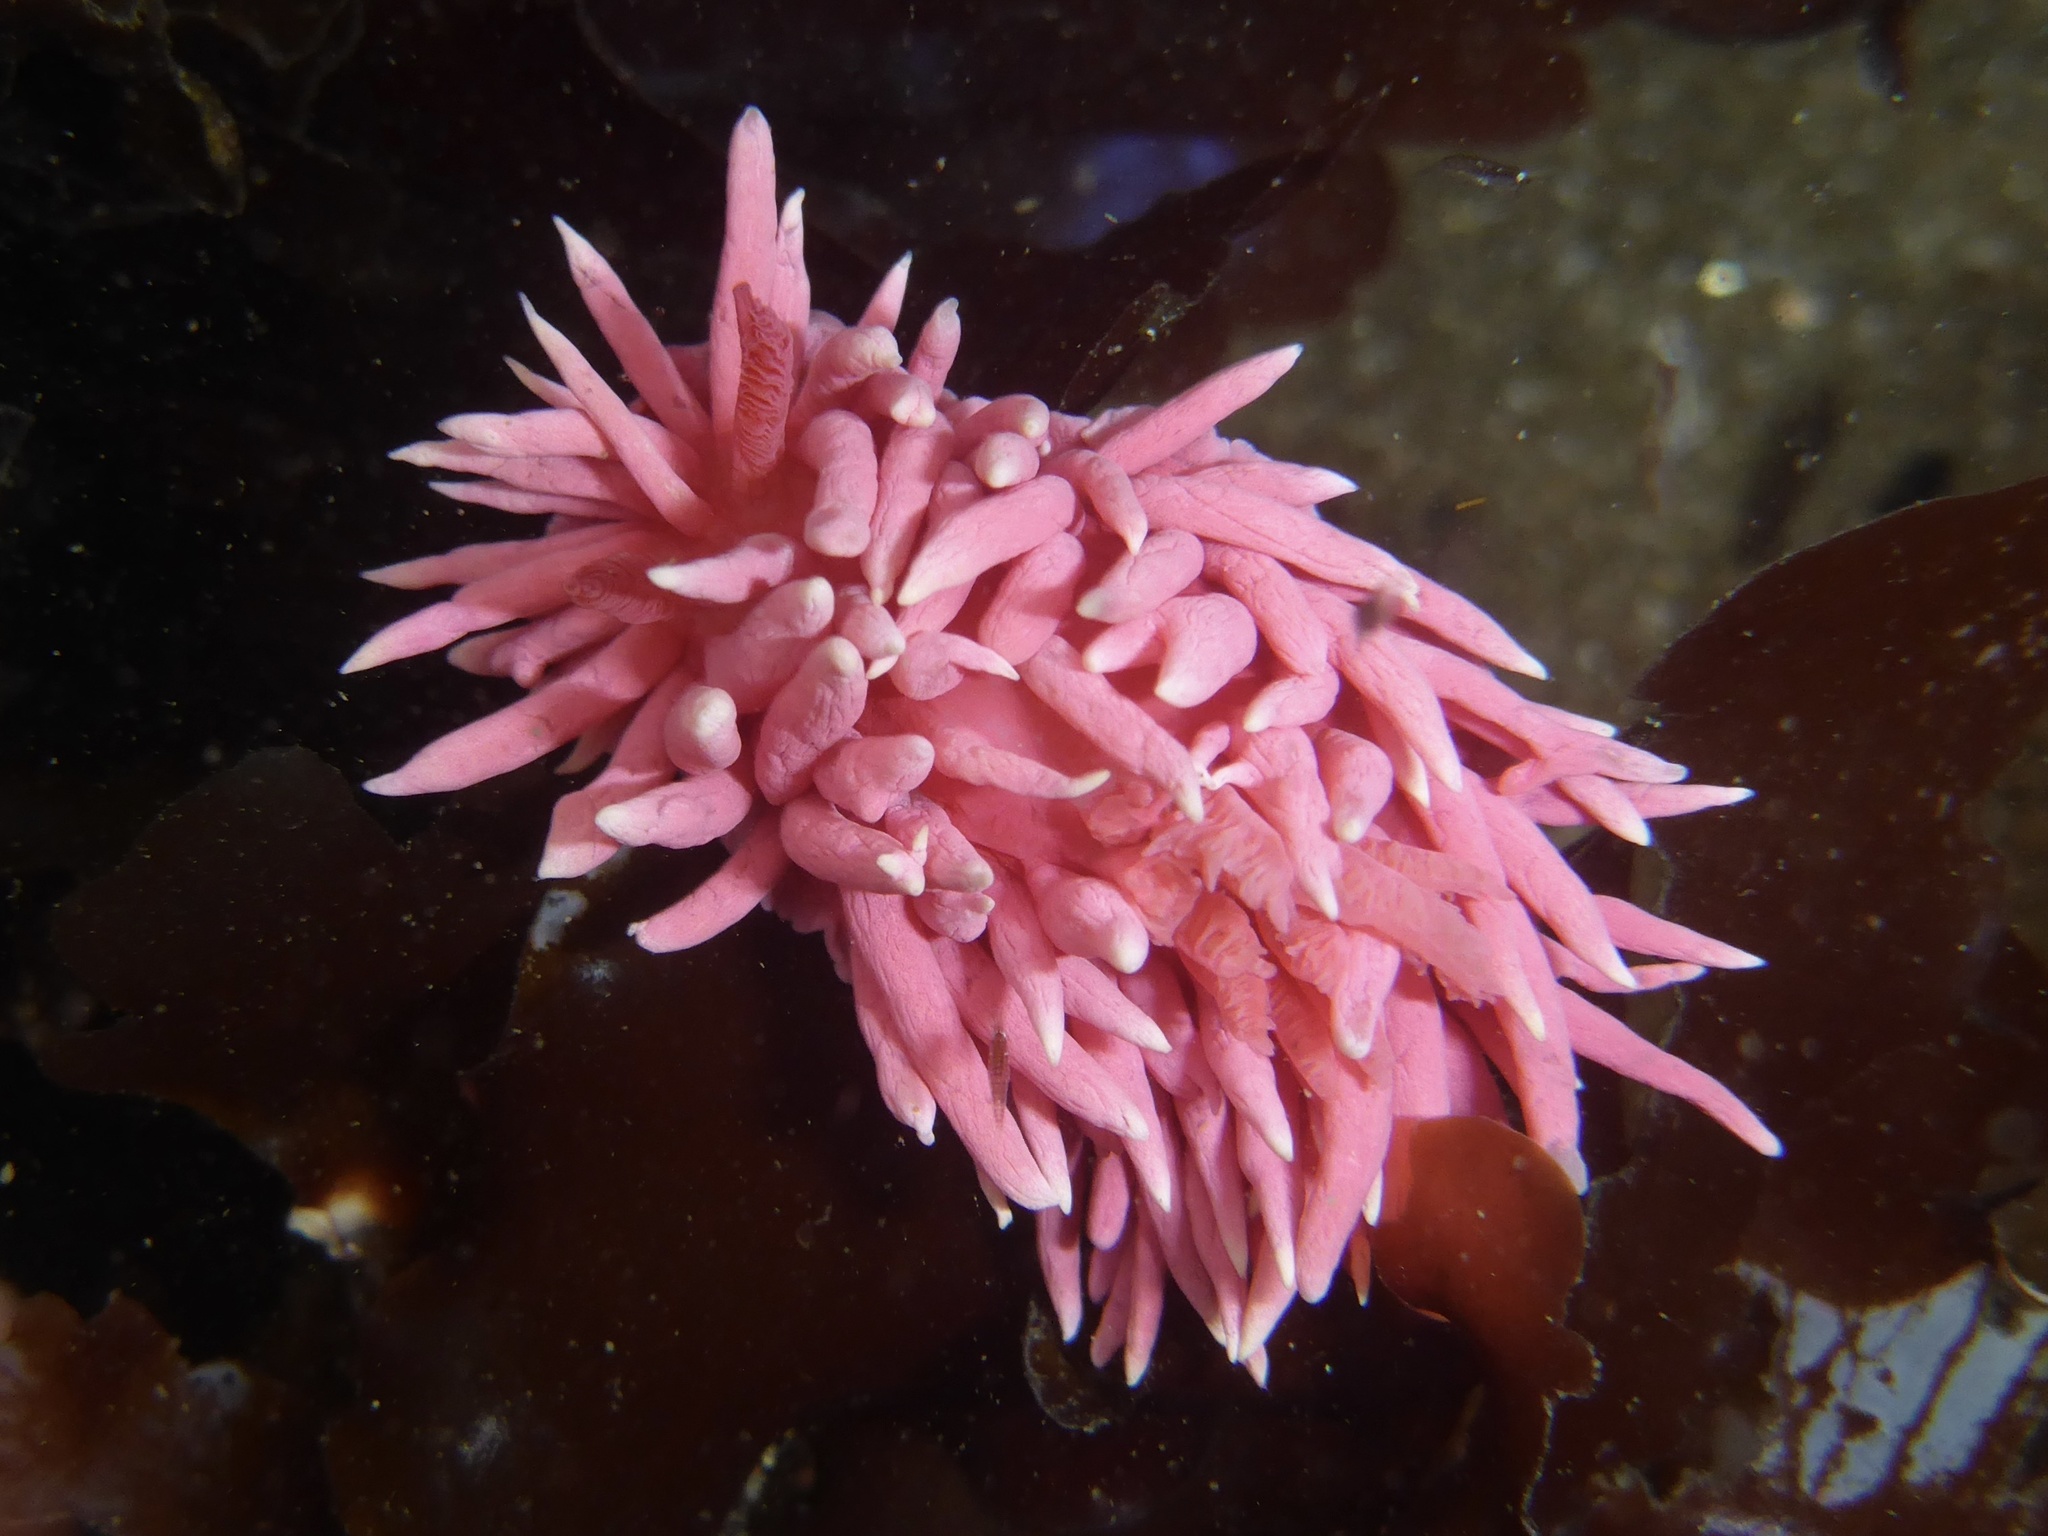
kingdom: Animalia
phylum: Mollusca
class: Gastropoda
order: Nudibranchia
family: Goniodorididae
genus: Okenia
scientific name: Okenia
